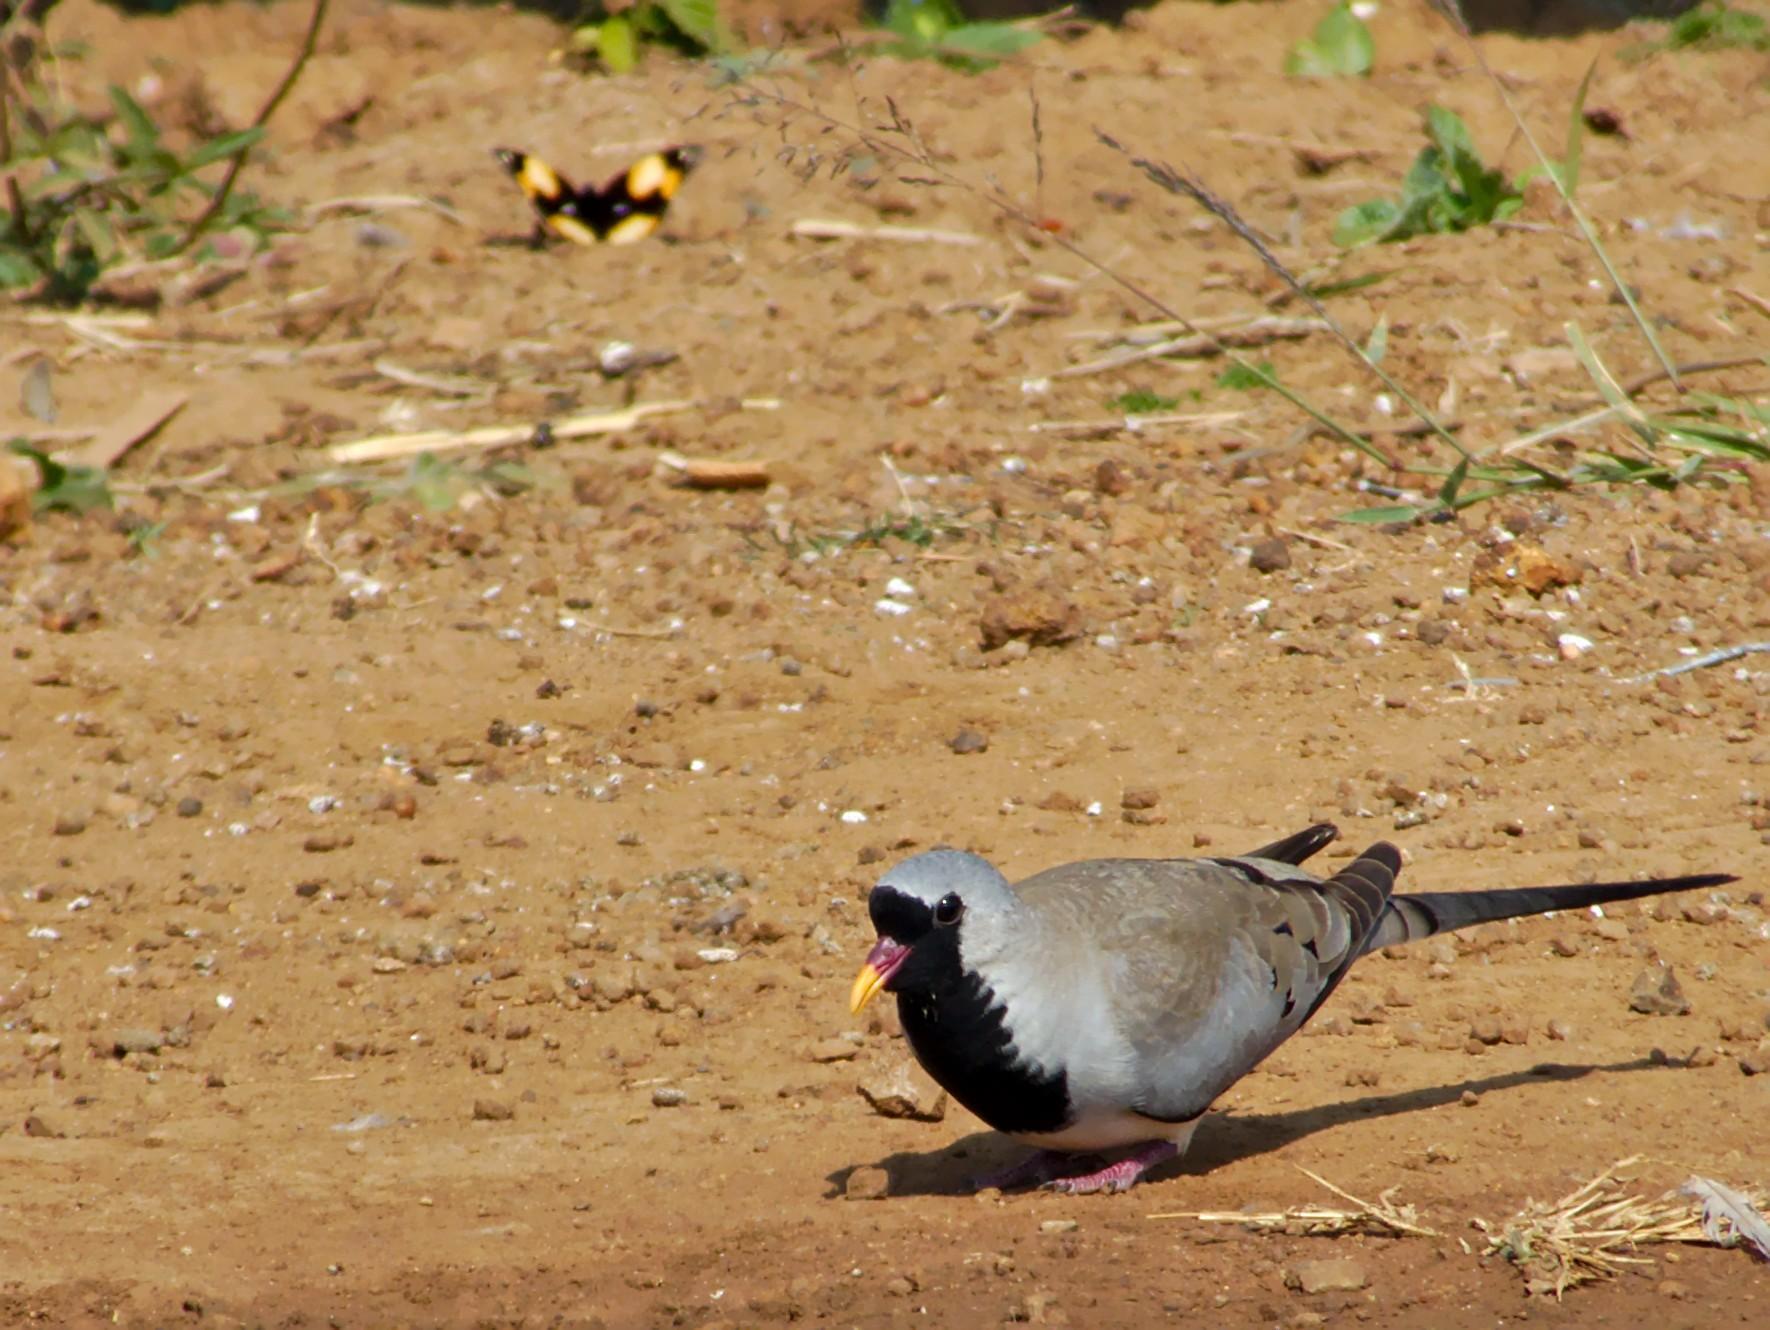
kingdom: Animalia
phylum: Chordata
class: Aves
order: Columbiformes
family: Columbidae
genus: Oena
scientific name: Oena capensis
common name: Namaqua dove
